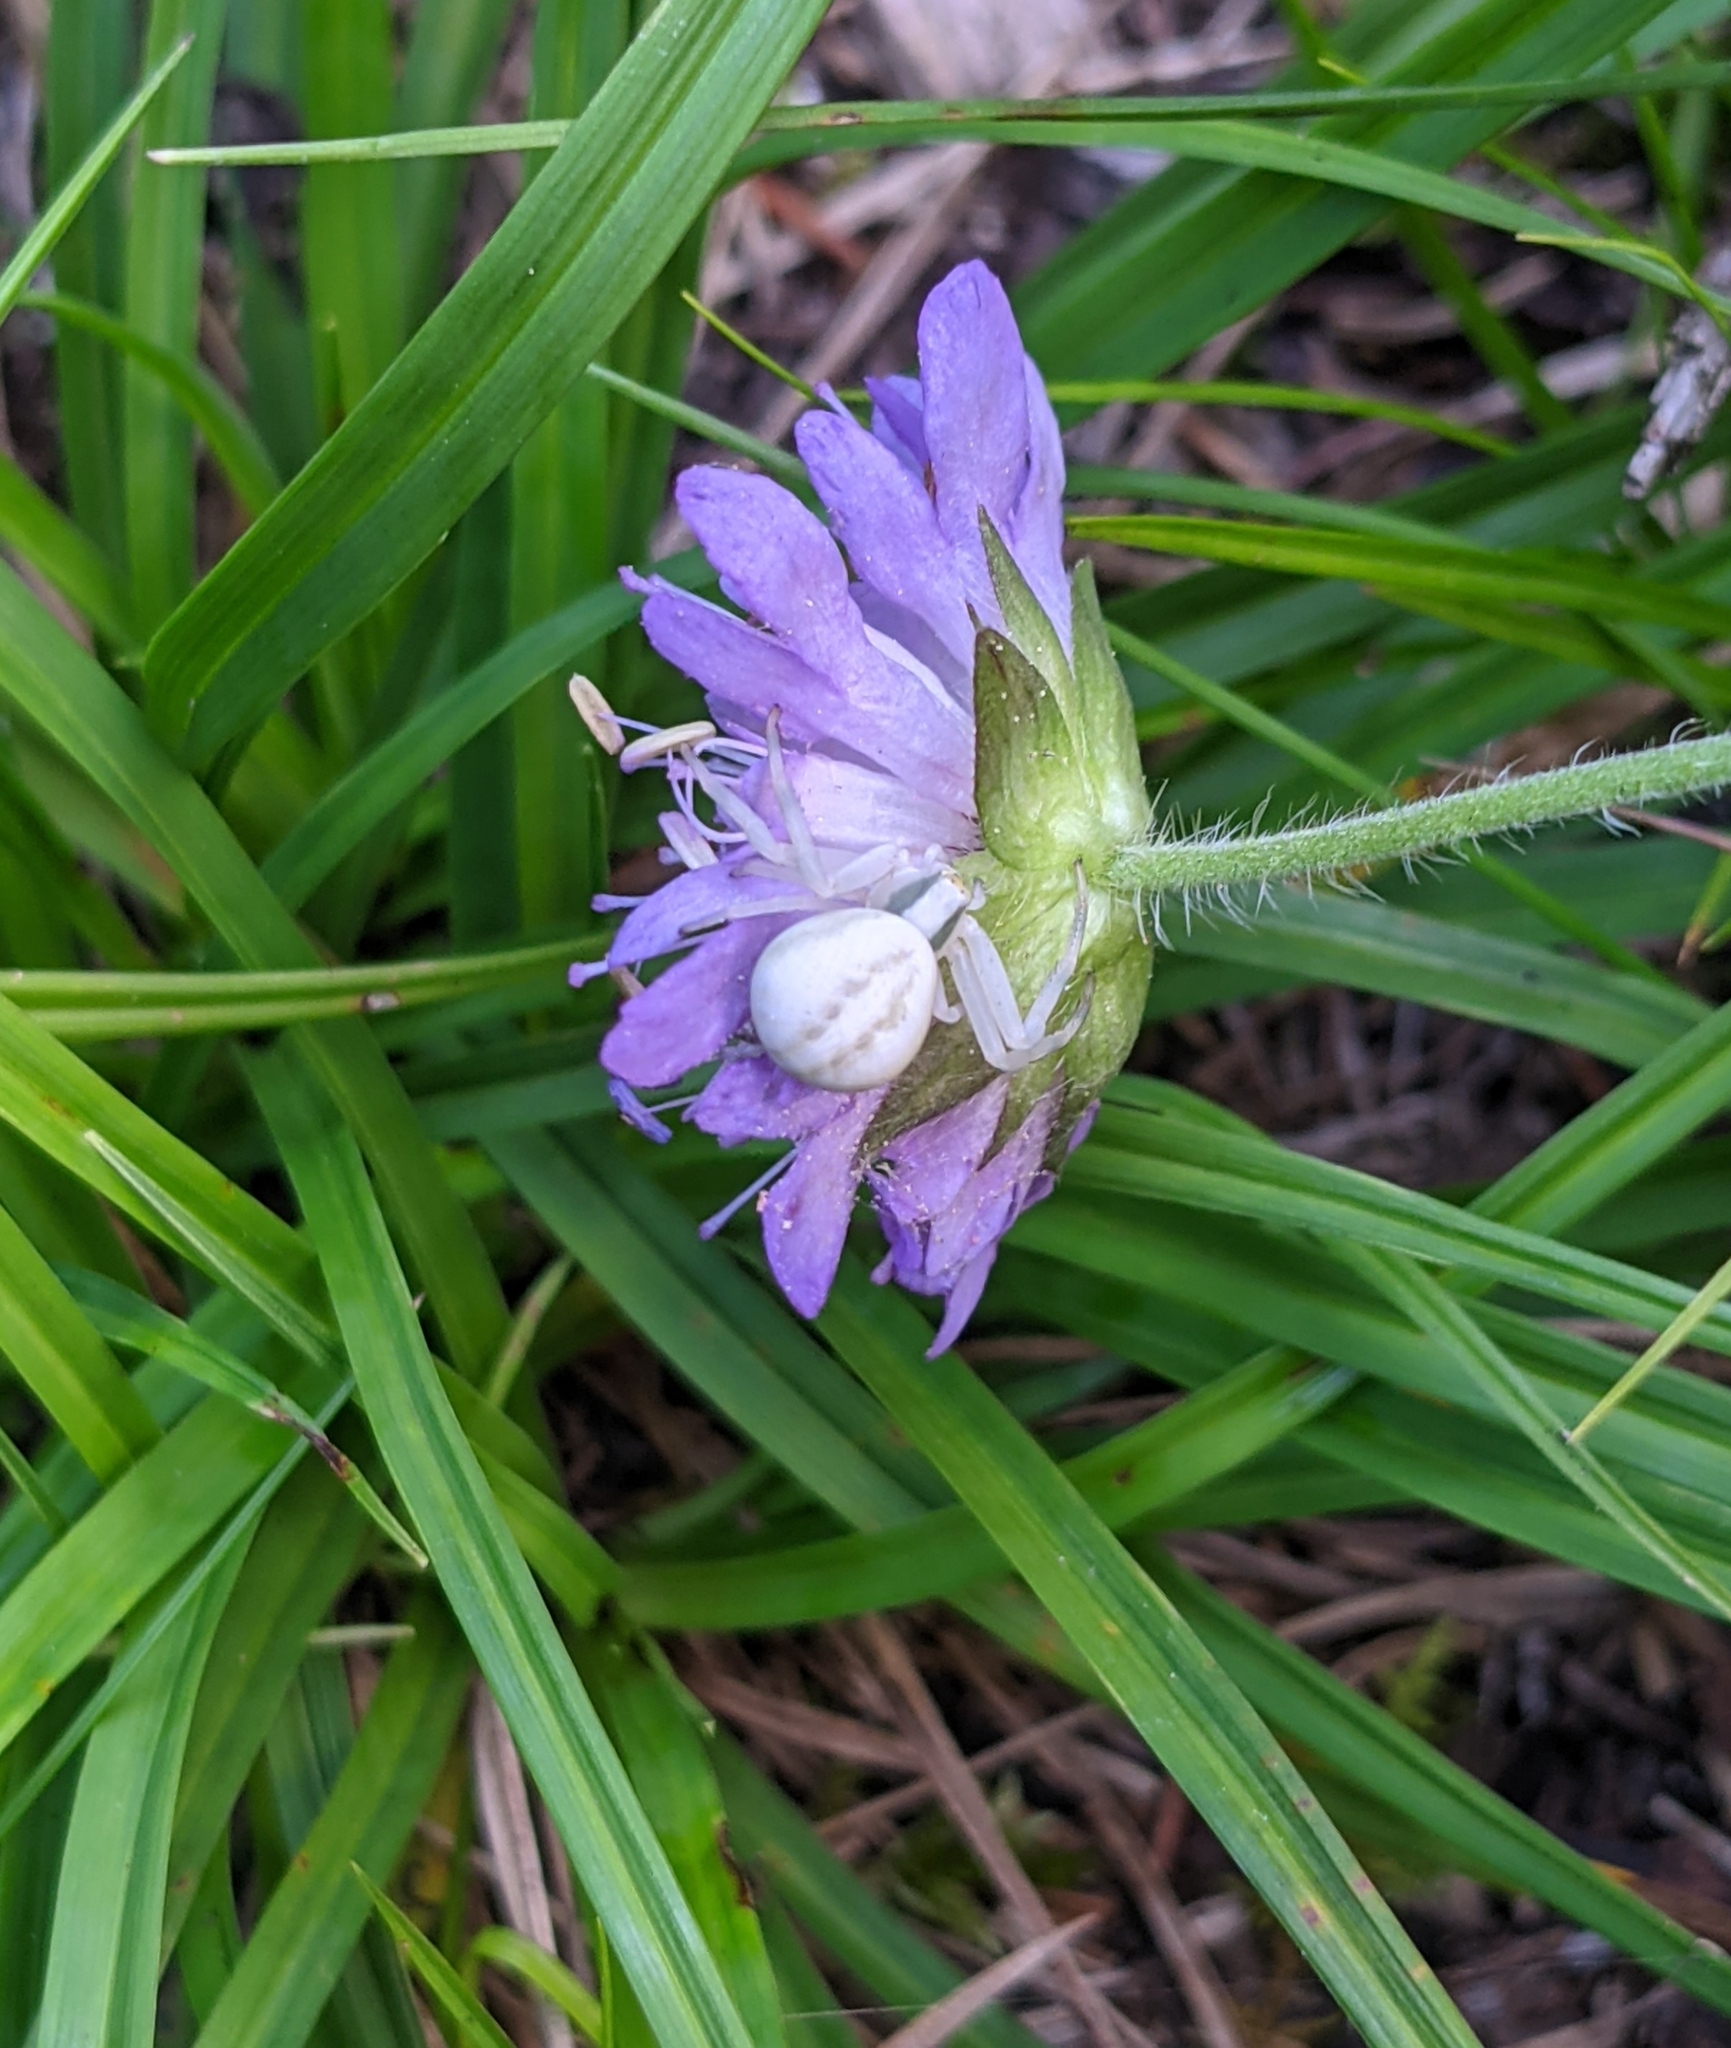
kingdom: Animalia
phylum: Arthropoda
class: Arachnida
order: Araneae
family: Thomisidae
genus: Misumena
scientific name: Misumena vatia
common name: Goldenrod crab spider
